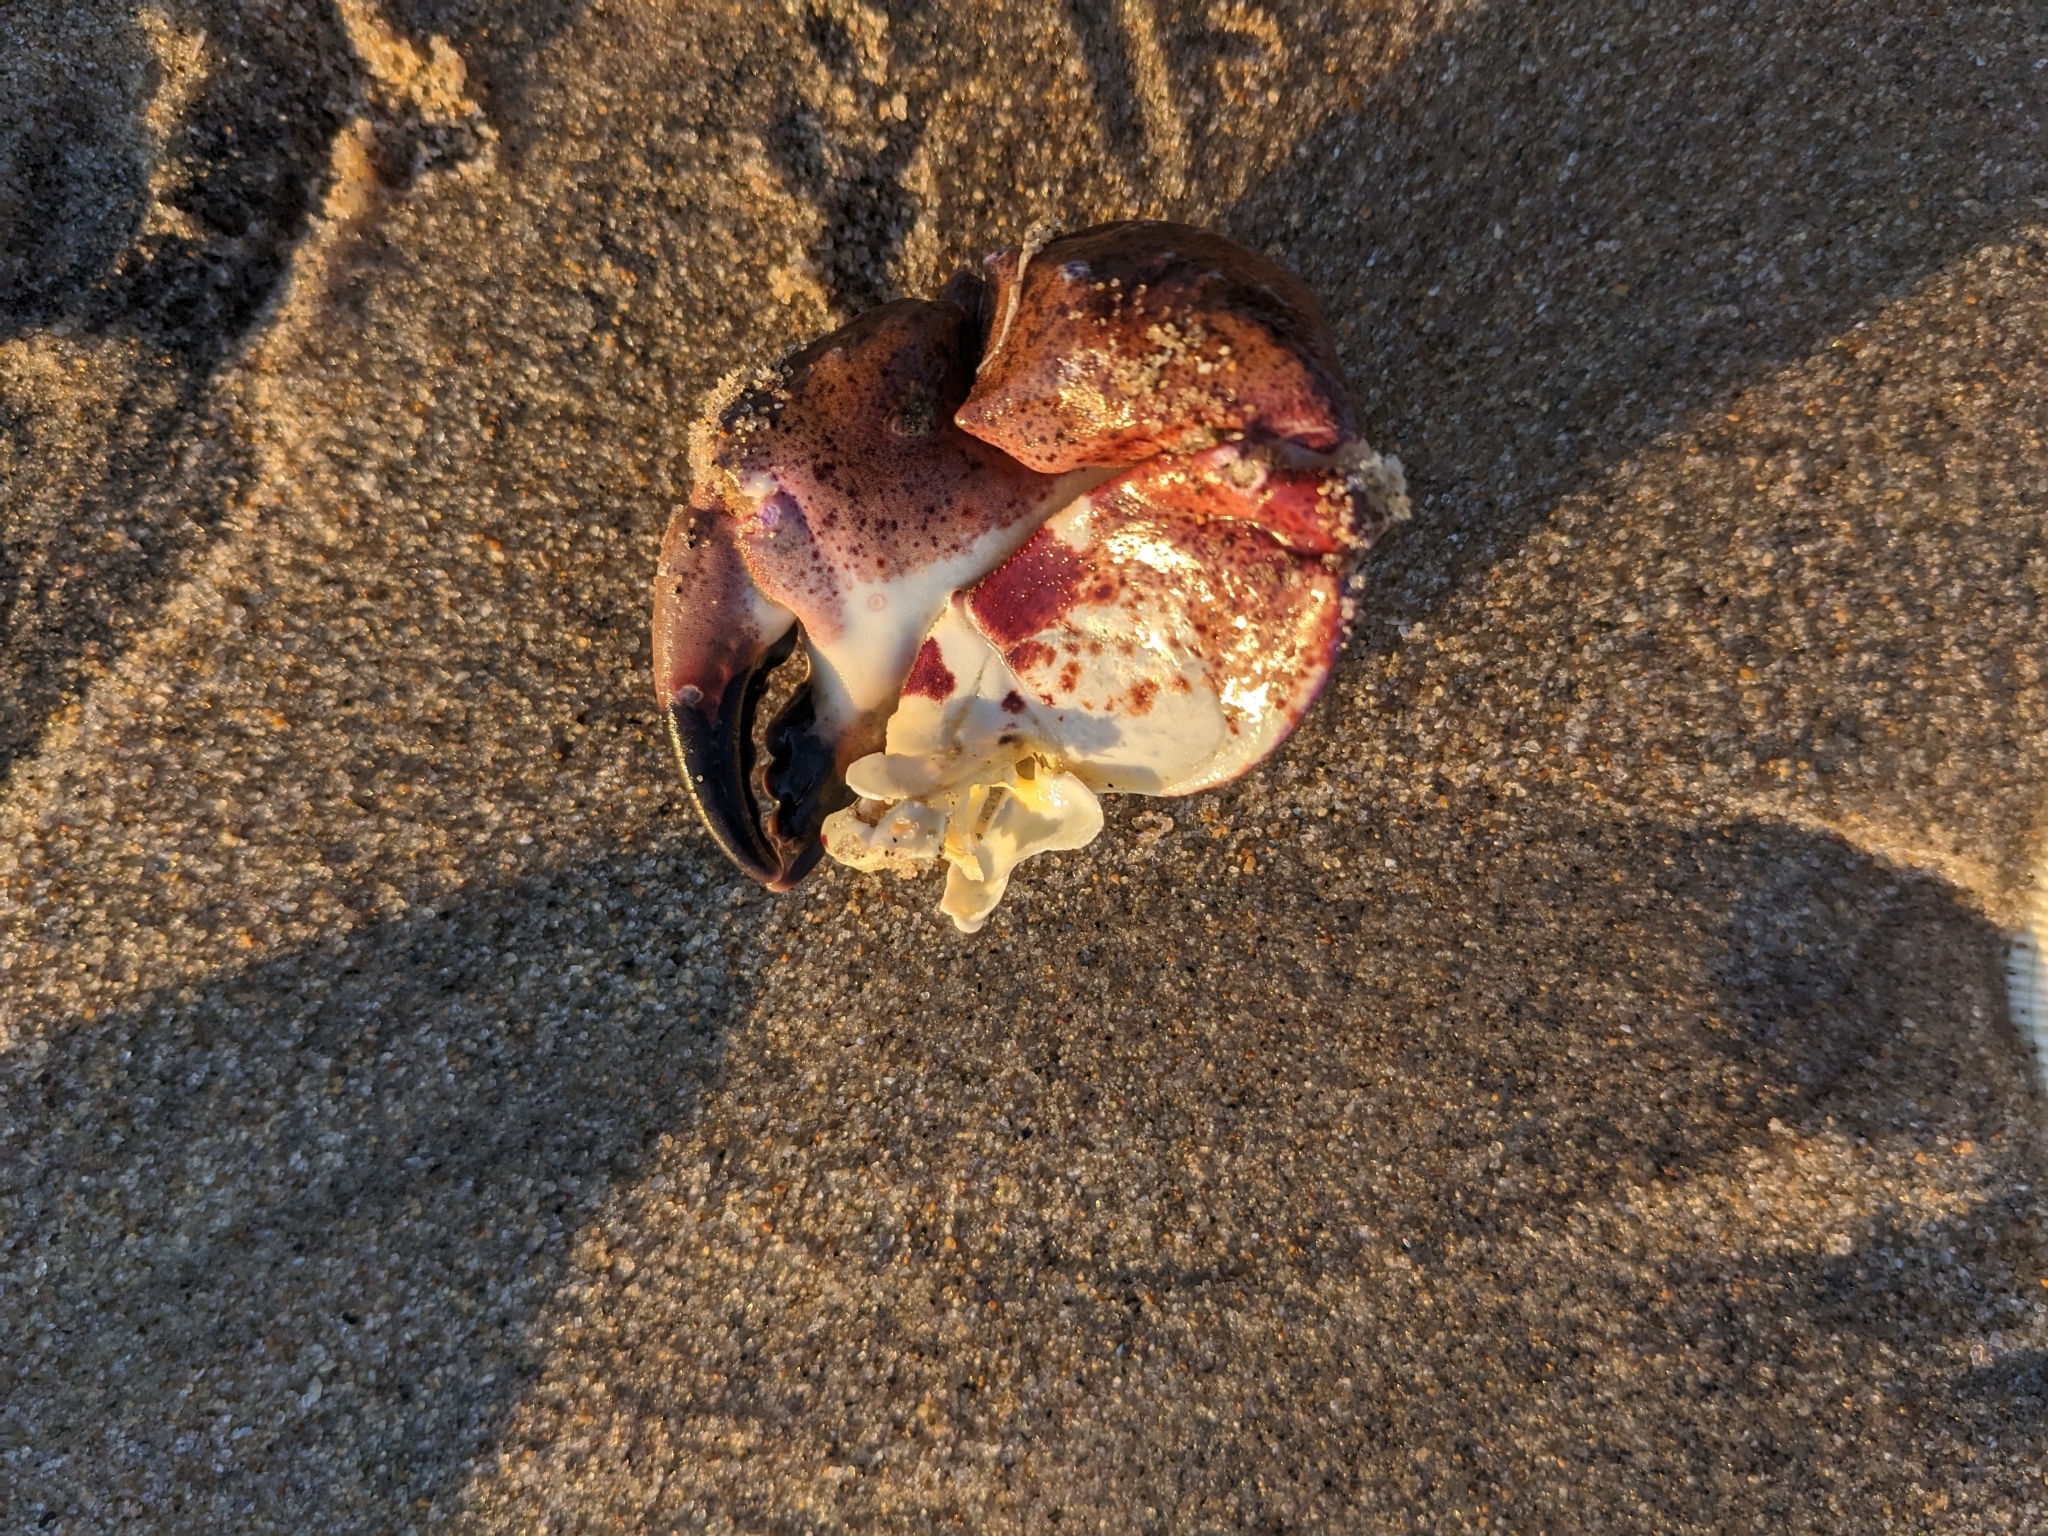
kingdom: Animalia
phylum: Arthropoda
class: Malacostraca
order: Decapoda
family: Cancridae
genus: Romaleon
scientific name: Romaleon antennarium
